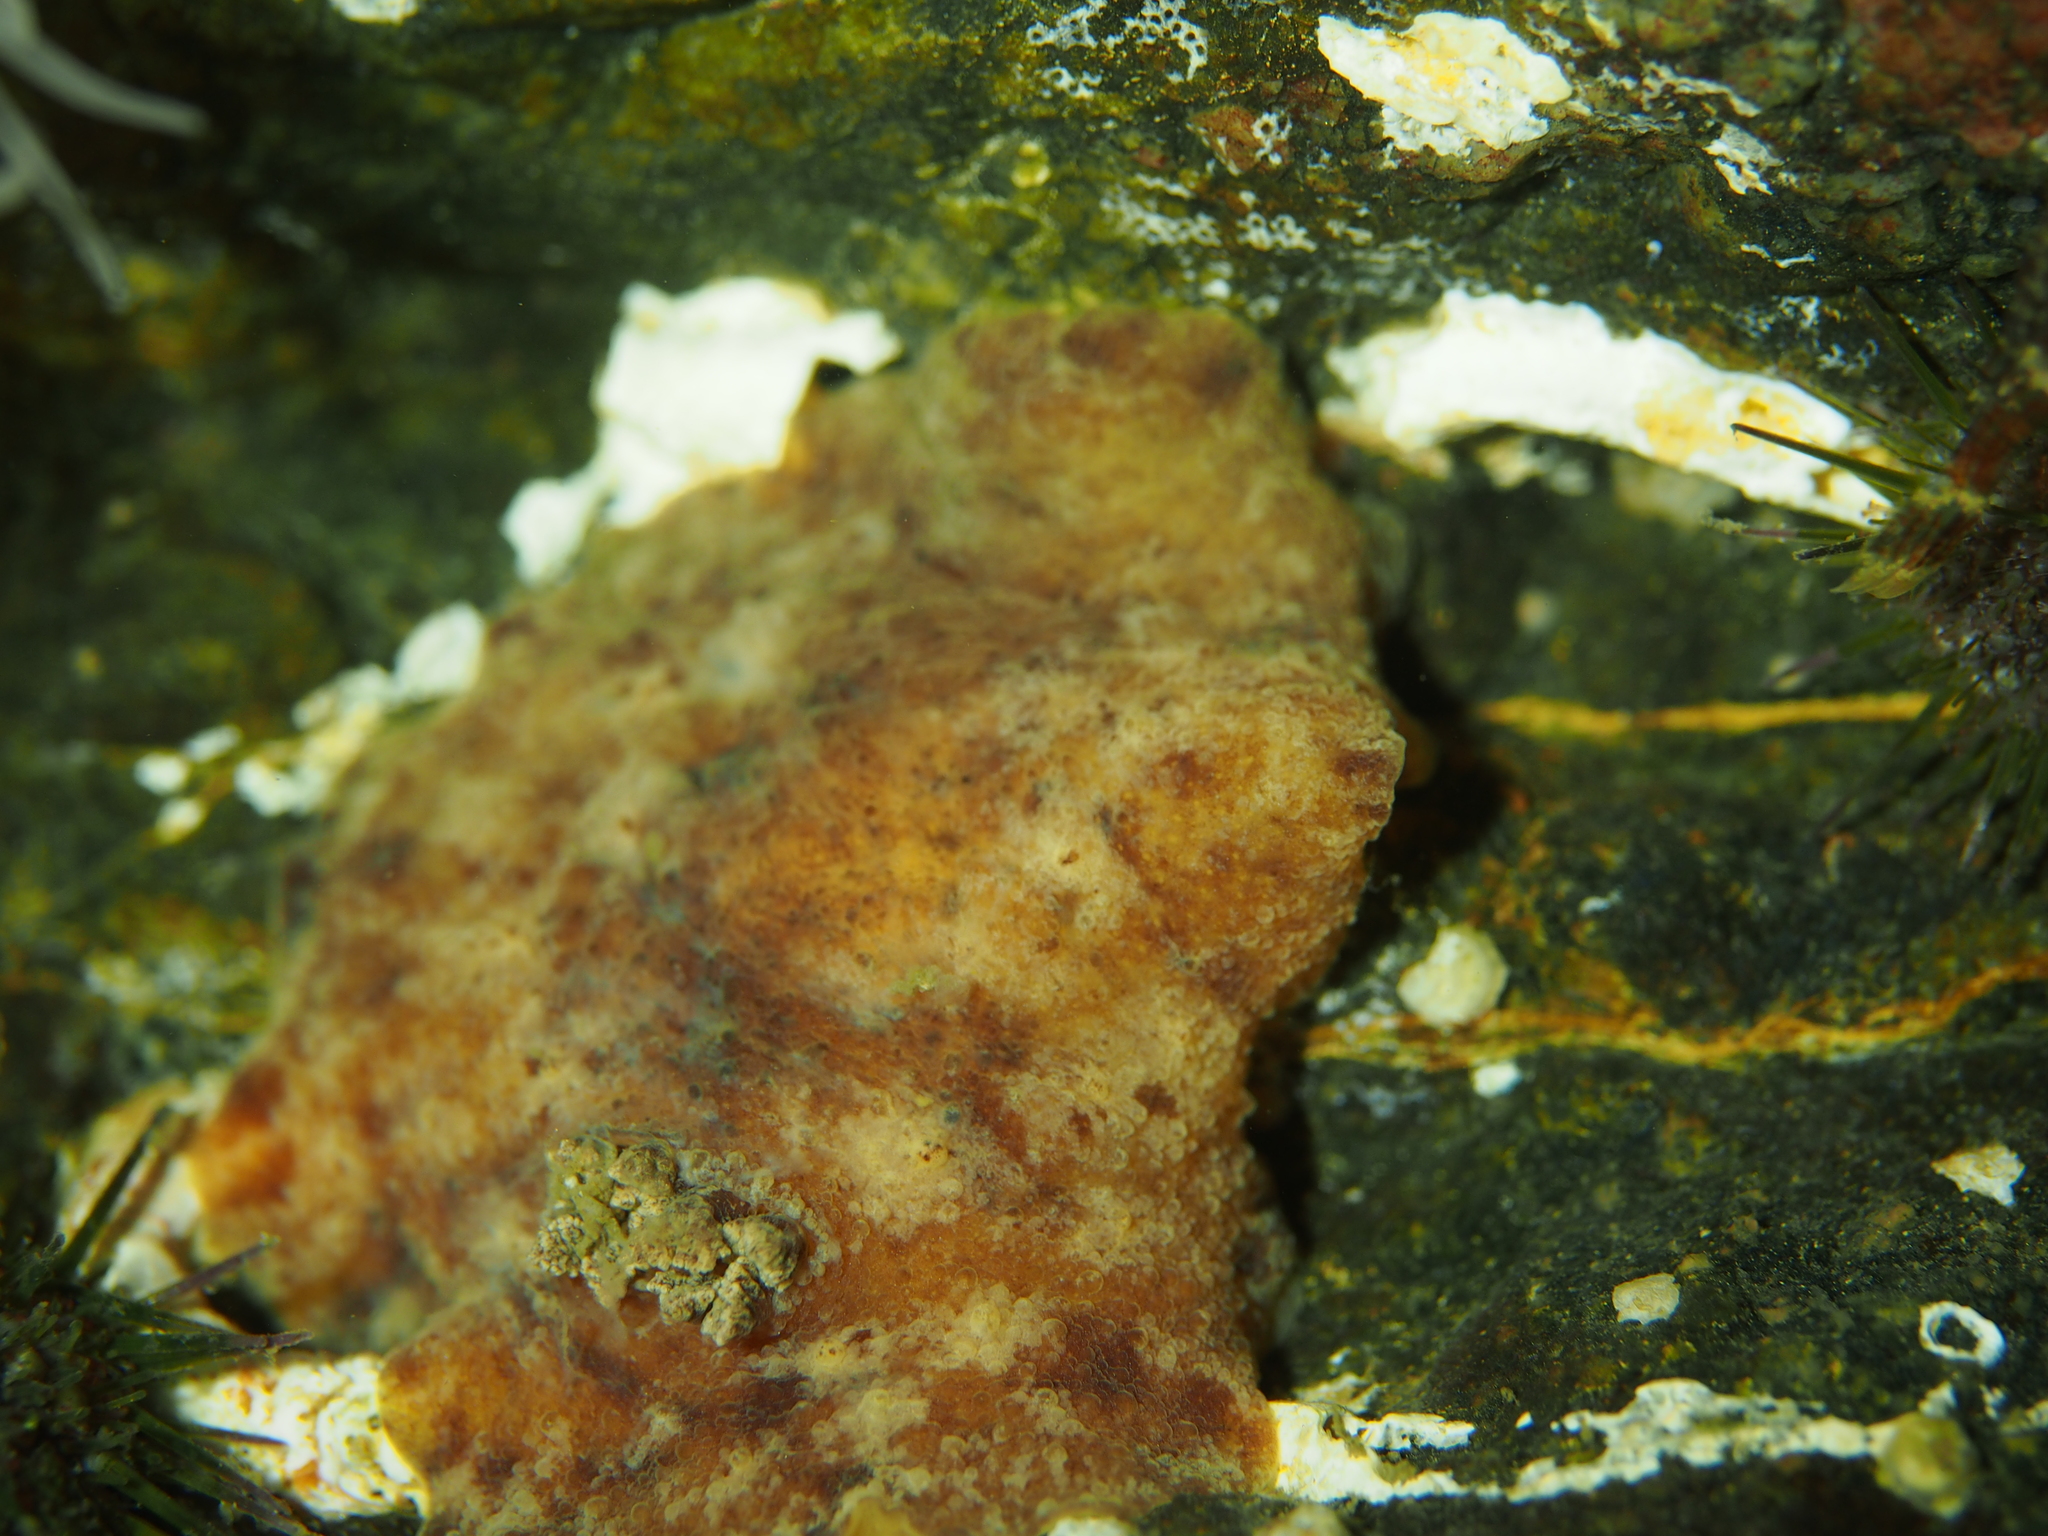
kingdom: Animalia
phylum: Mollusca
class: Gastropoda
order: Nudibranchia
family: Discodorididae
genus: Geitodoris
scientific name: Geitodoris planata
